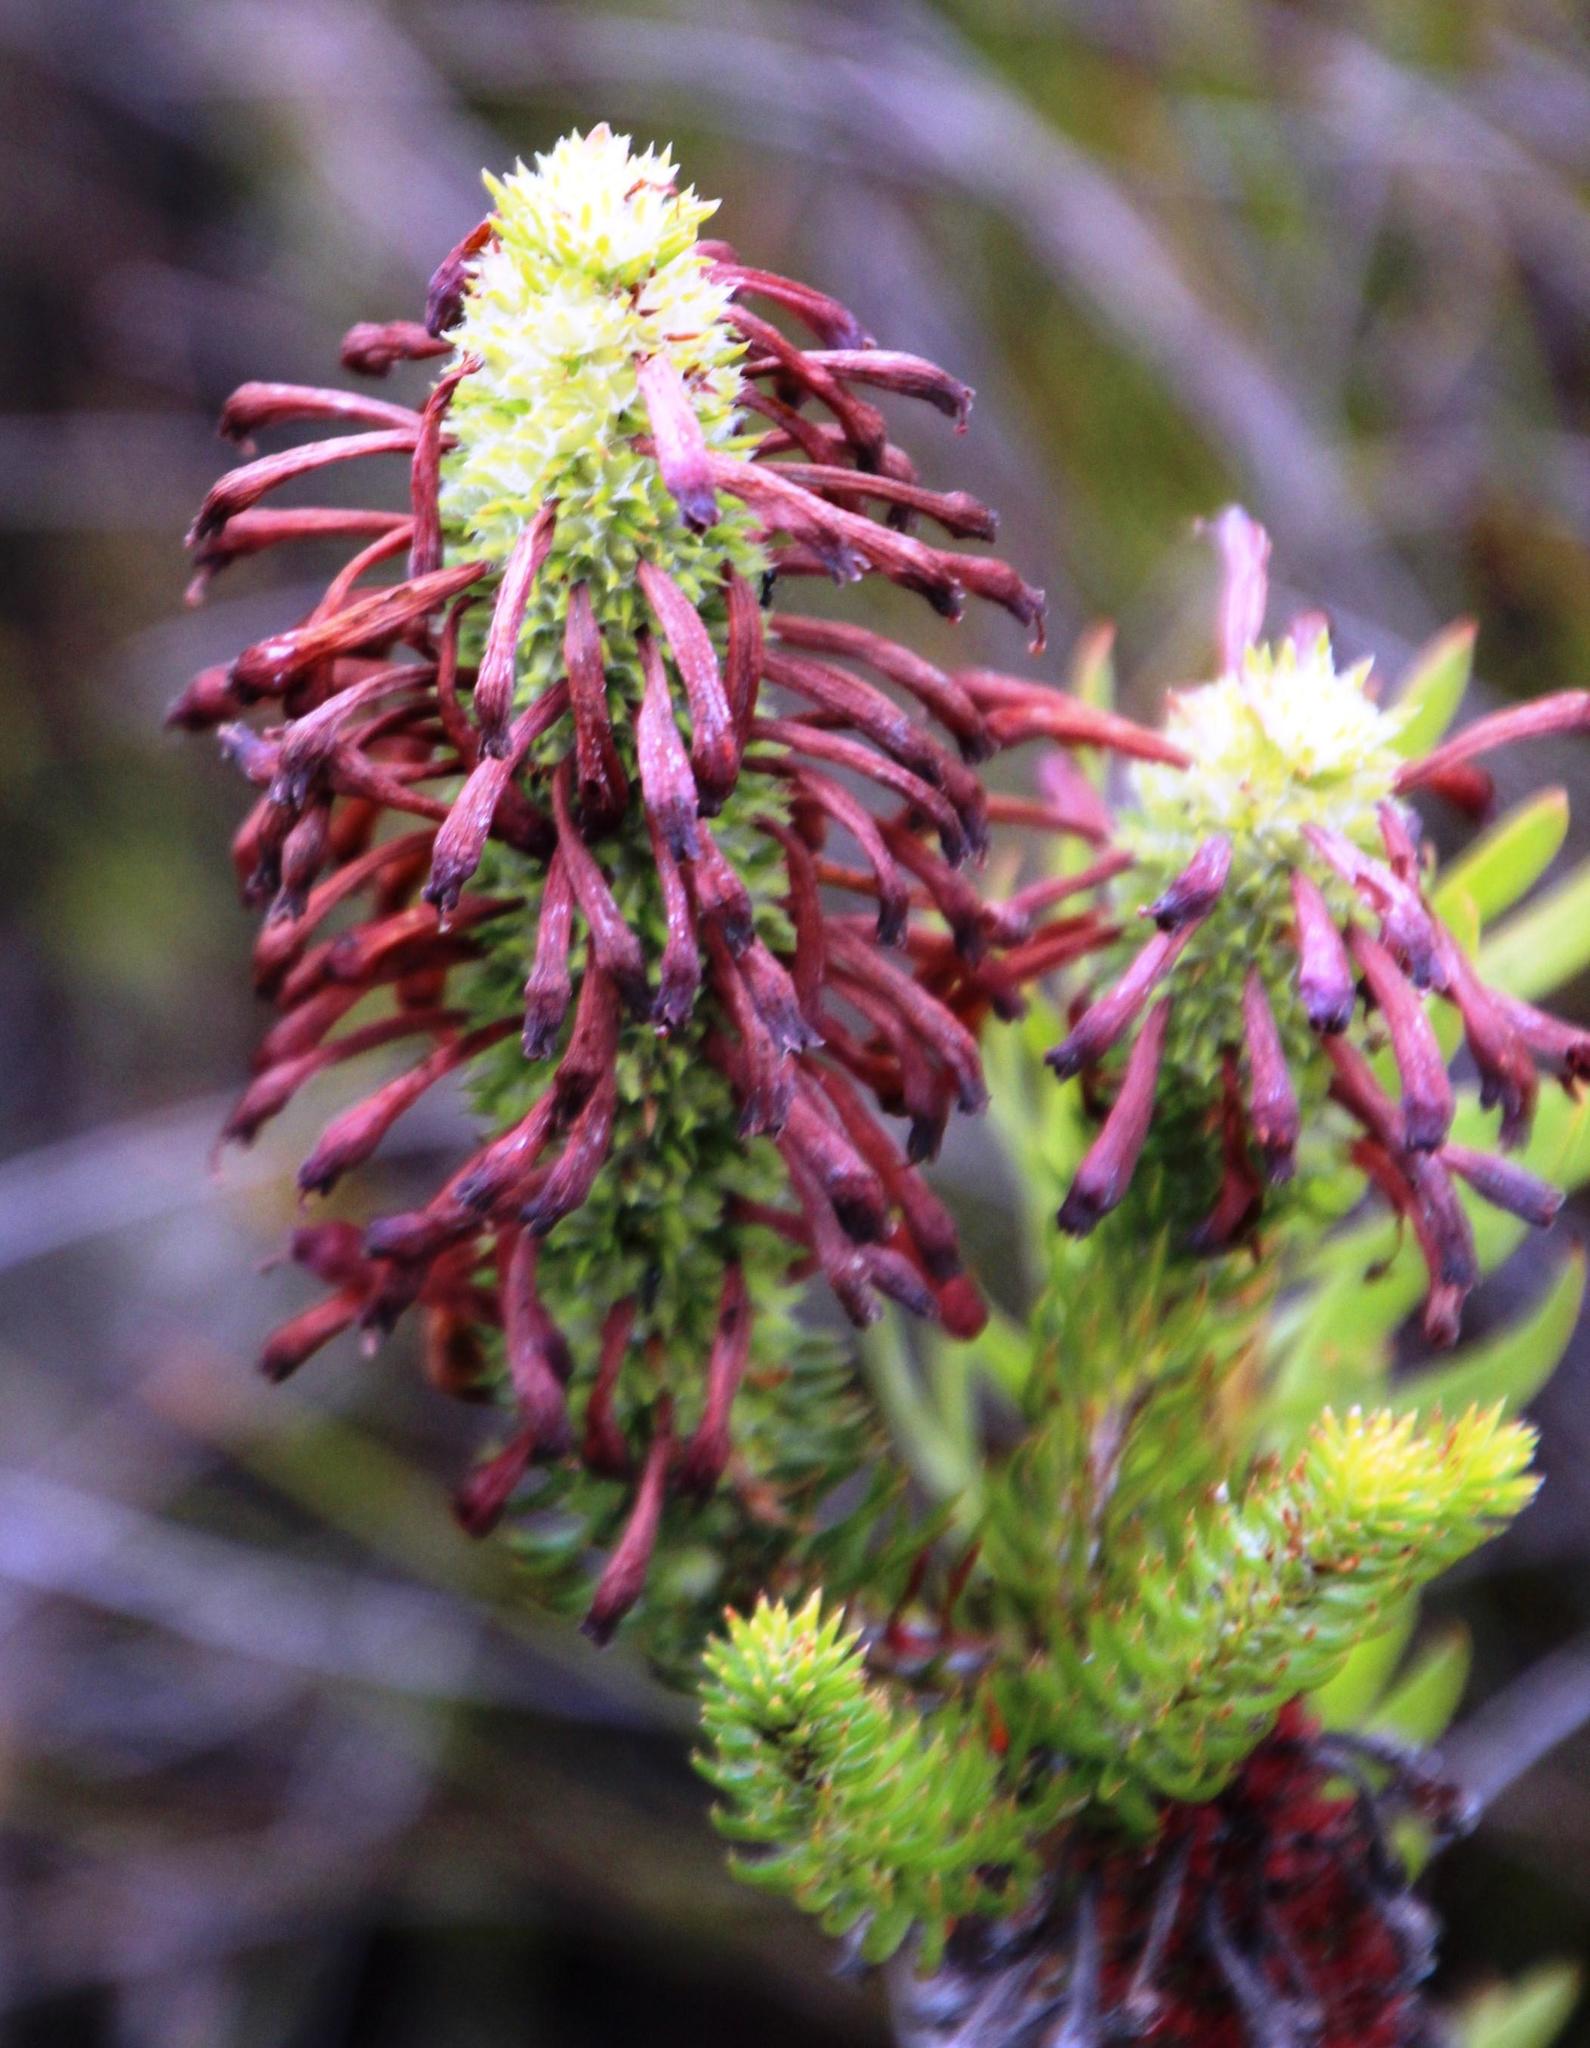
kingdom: Plantae
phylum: Tracheophyta
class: Magnoliopsida
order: Ericales
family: Ericaceae
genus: Erica
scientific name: Erica sessiliflora
